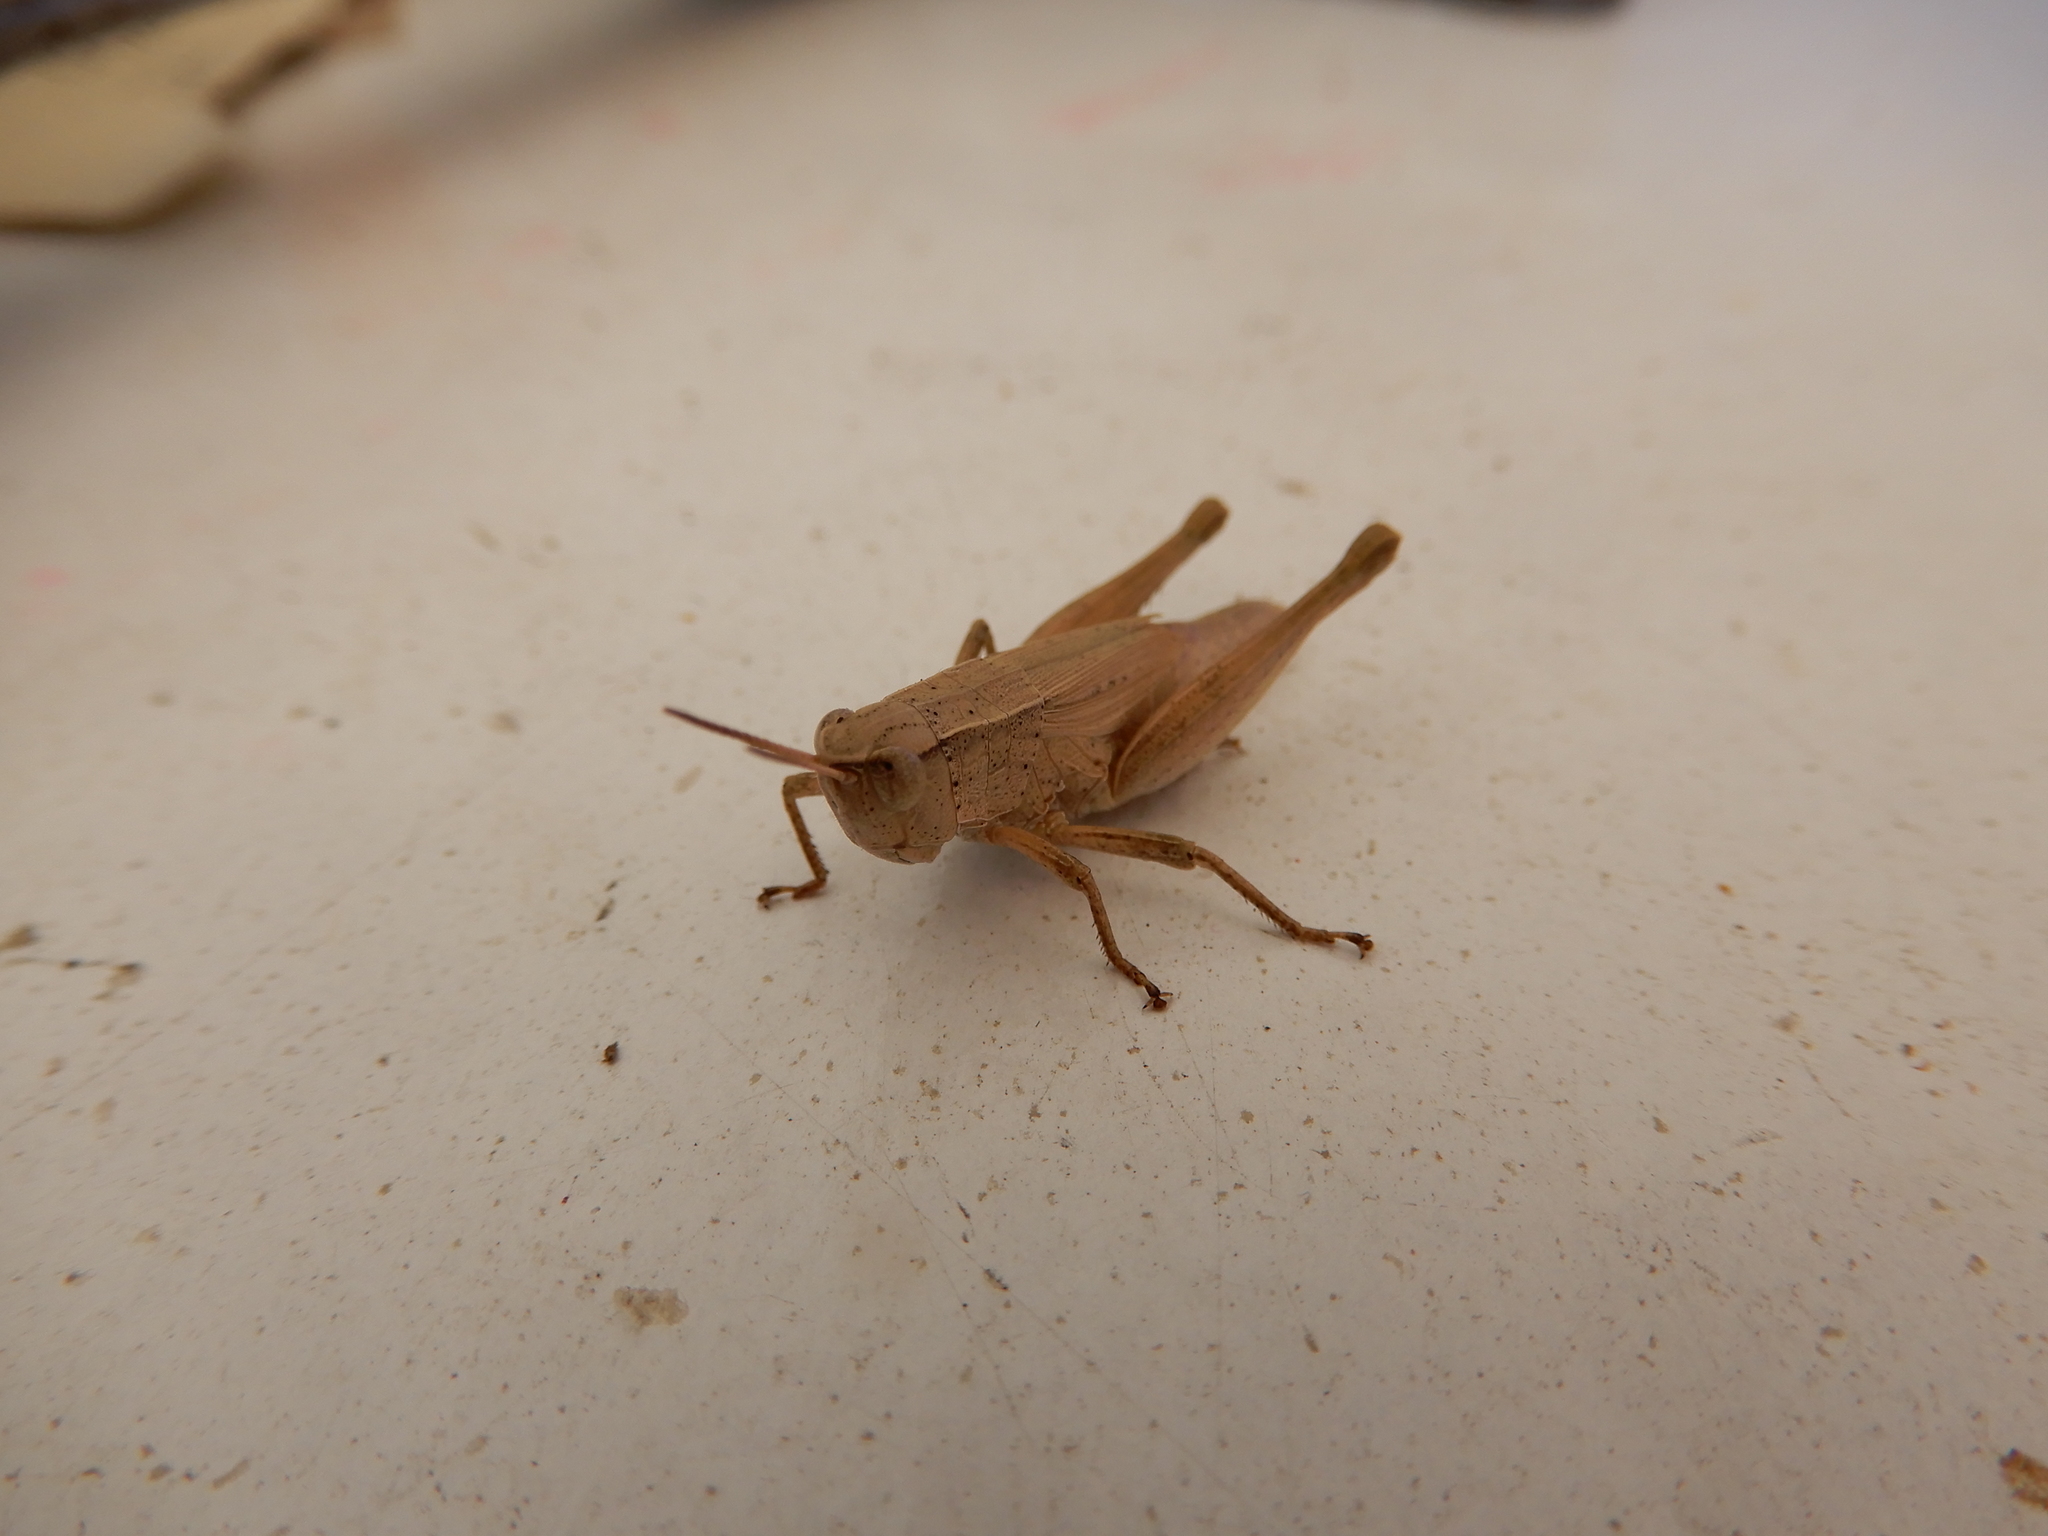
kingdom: Animalia
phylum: Arthropoda
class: Insecta
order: Orthoptera
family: Acrididae
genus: Dichromorpha
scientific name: Dichromorpha viridis
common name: Short-winged green grasshopper
